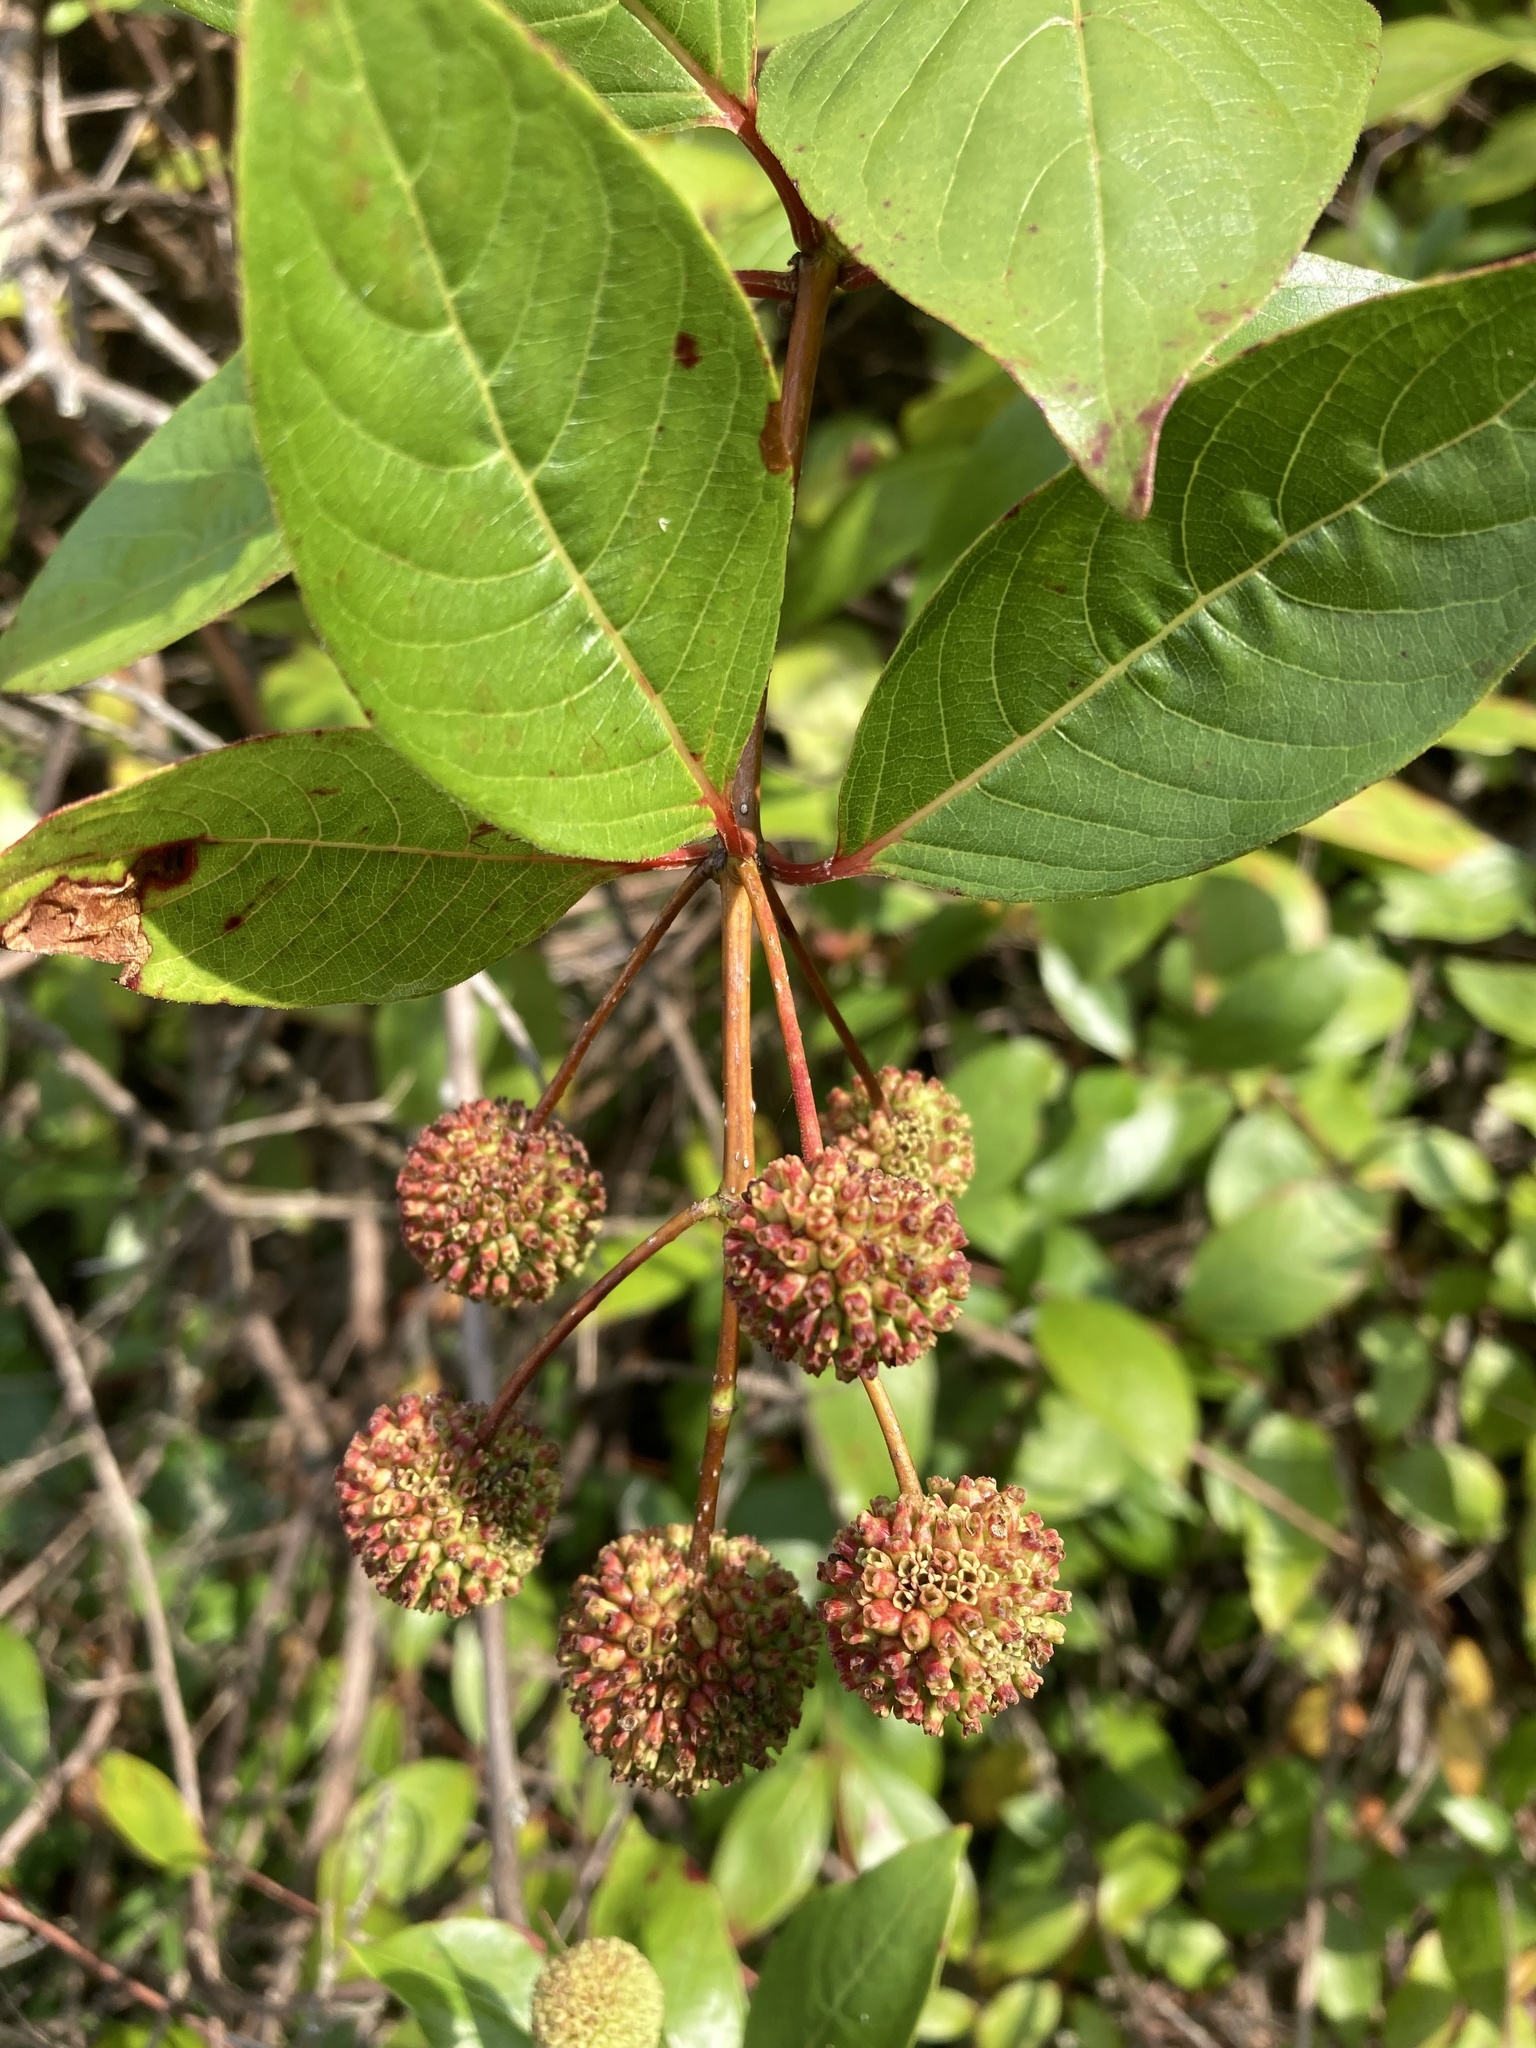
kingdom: Plantae
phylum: Tracheophyta
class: Magnoliopsida
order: Gentianales
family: Rubiaceae
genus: Cephalanthus
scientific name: Cephalanthus occidentalis
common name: Button-willow
